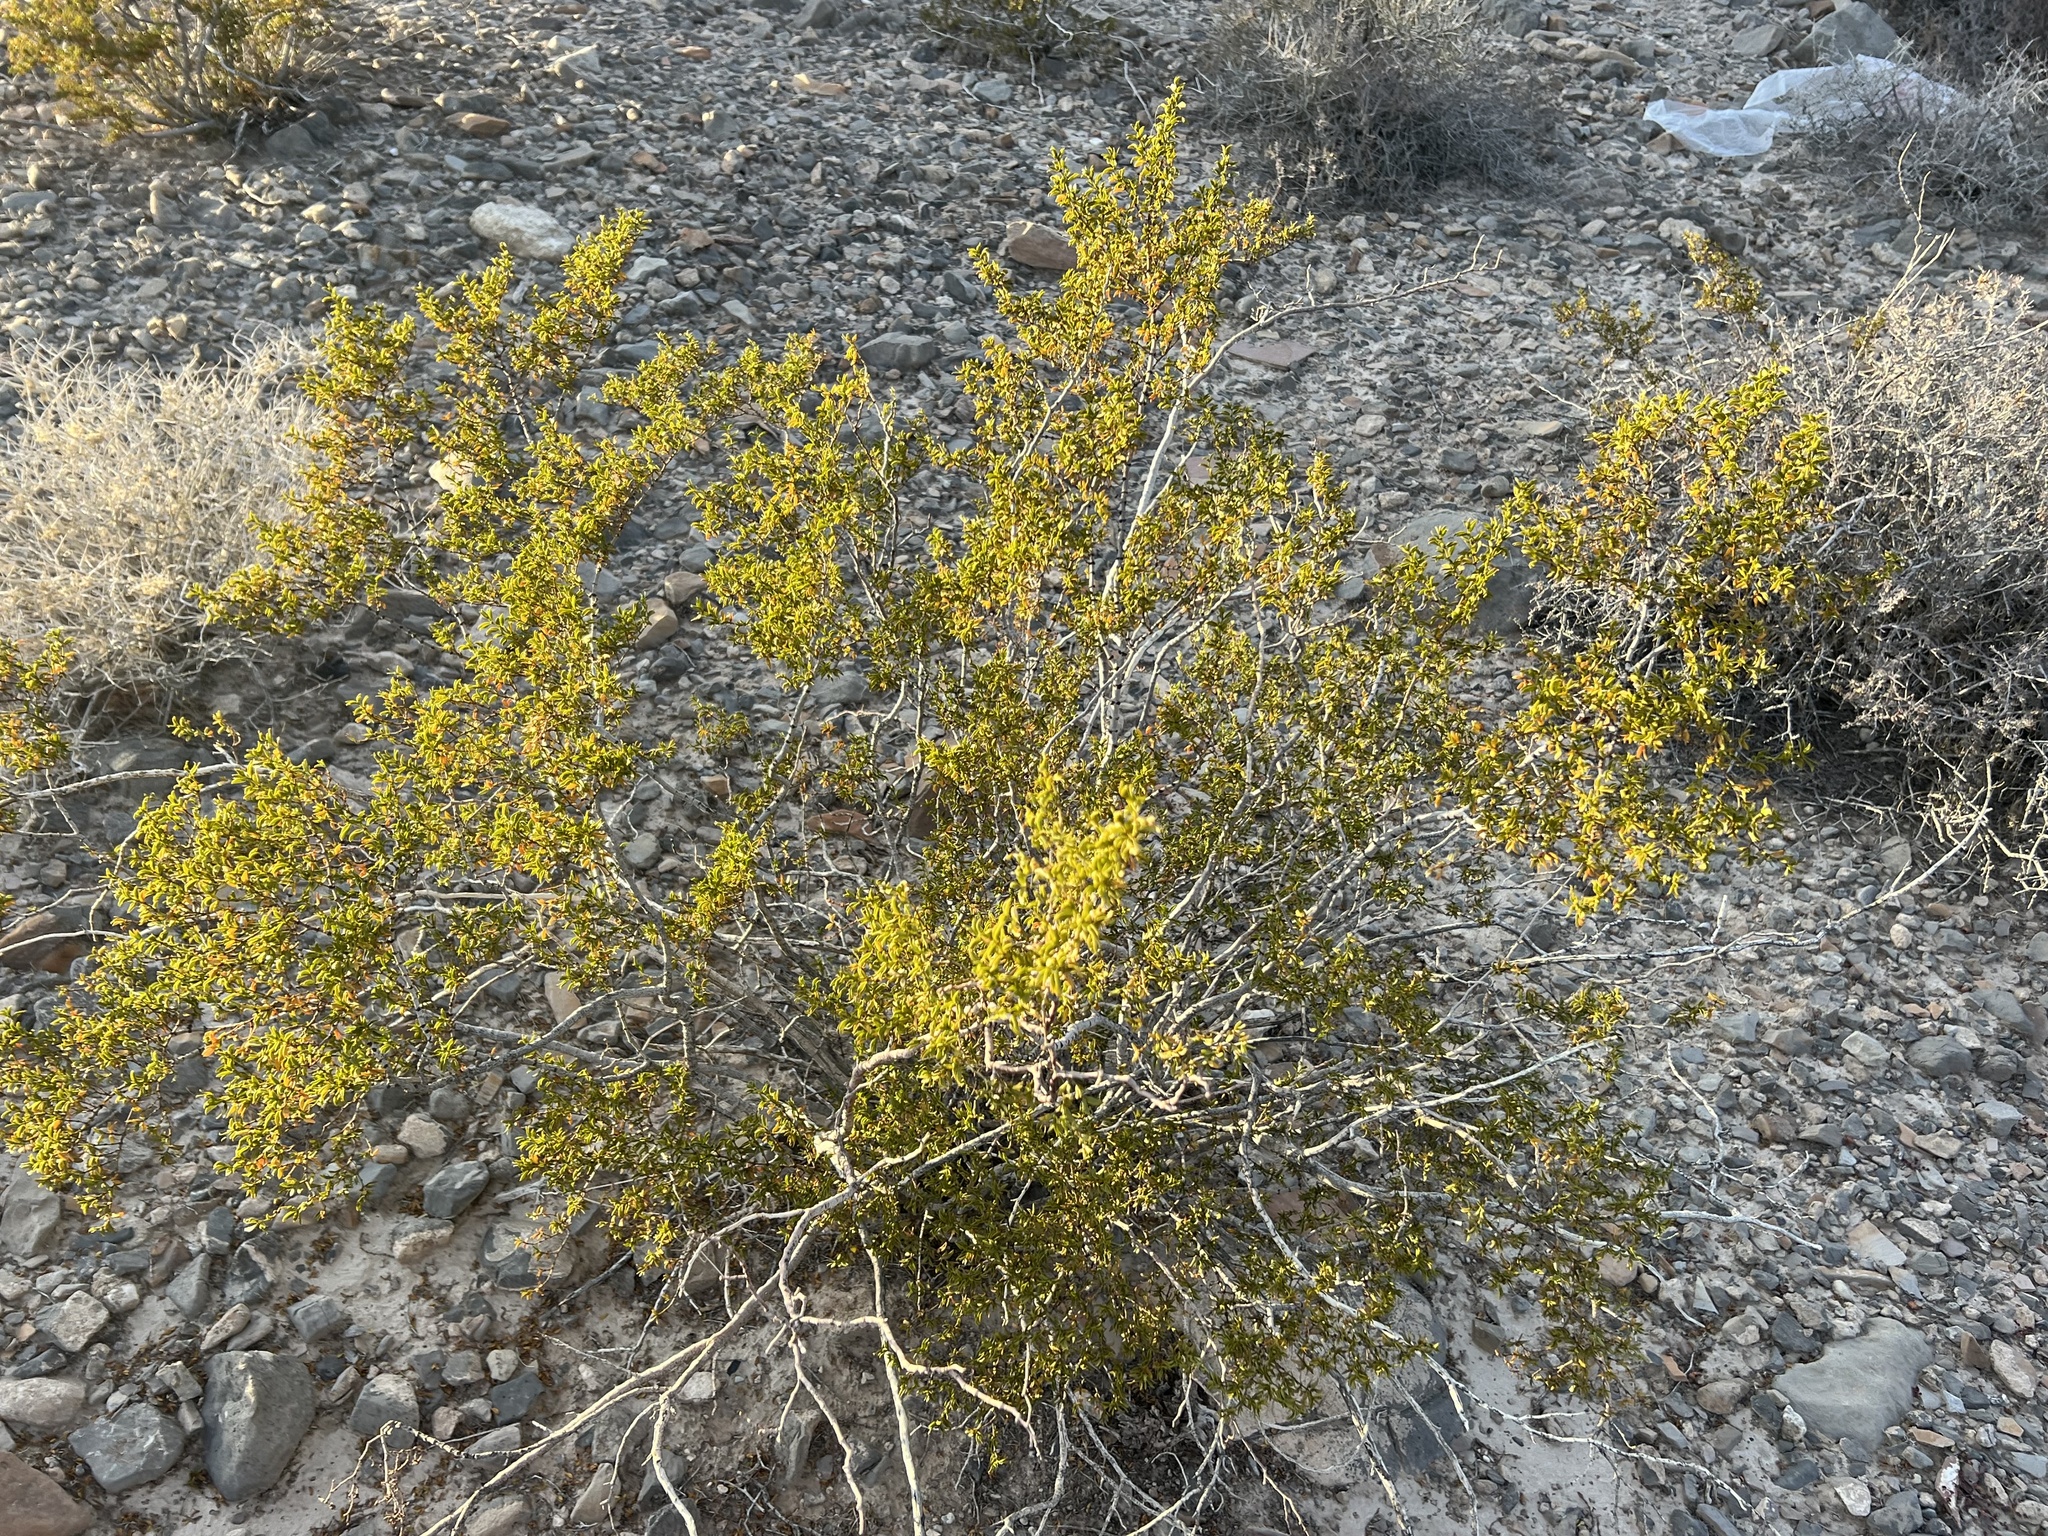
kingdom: Plantae
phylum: Tracheophyta
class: Magnoliopsida
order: Zygophyllales
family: Zygophyllaceae
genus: Larrea
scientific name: Larrea tridentata
